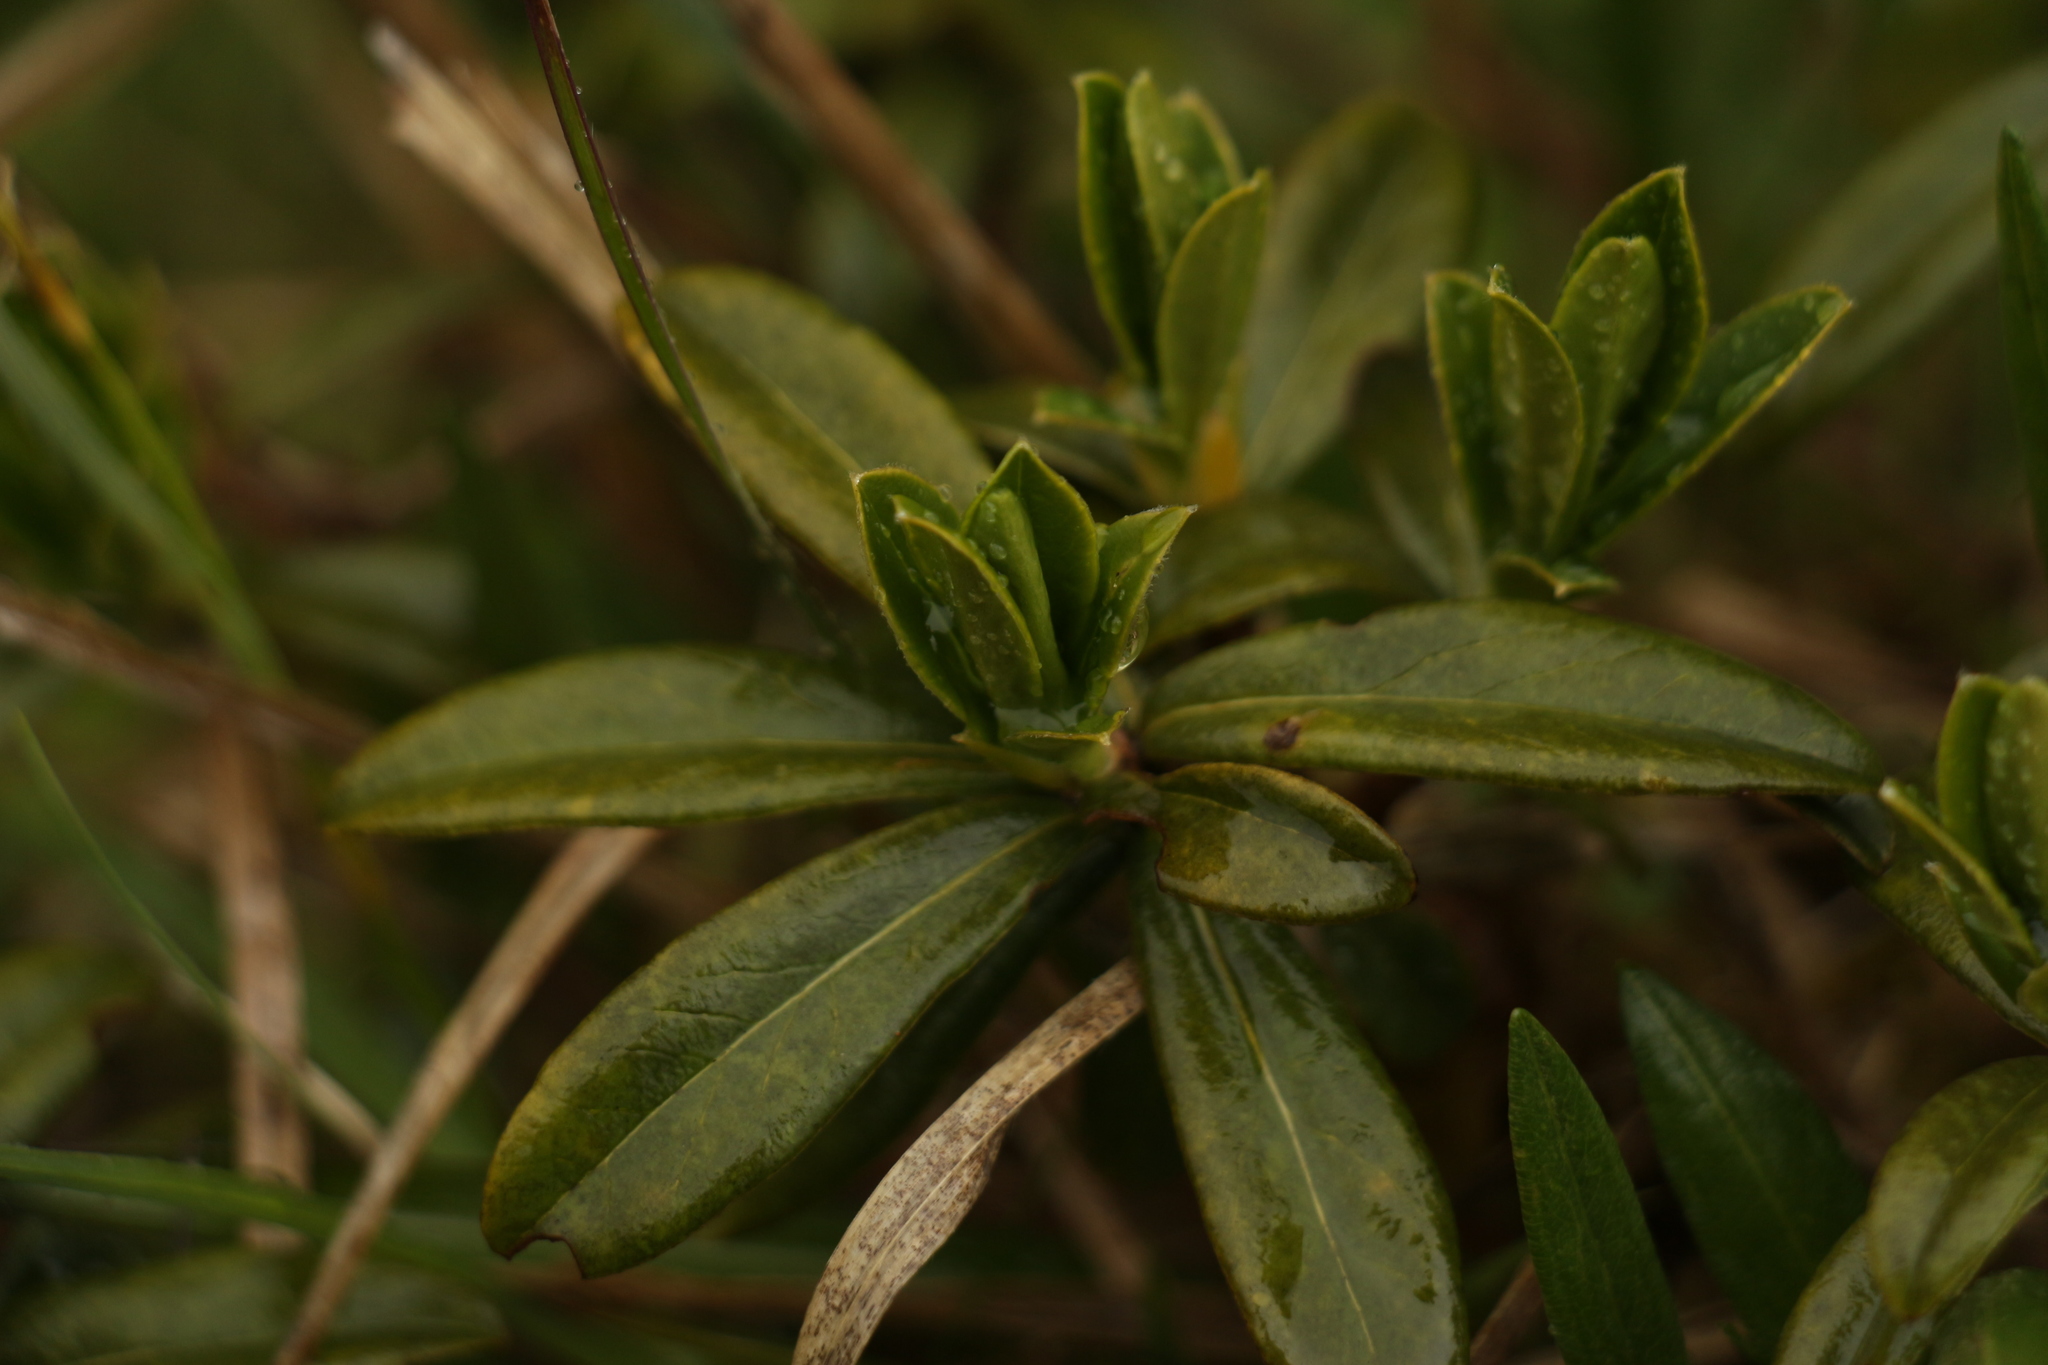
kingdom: Plantae
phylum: Tracheophyta
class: Magnoliopsida
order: Malvales
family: Thymelaeaceae
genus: Daphne
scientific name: Daphne retusa
